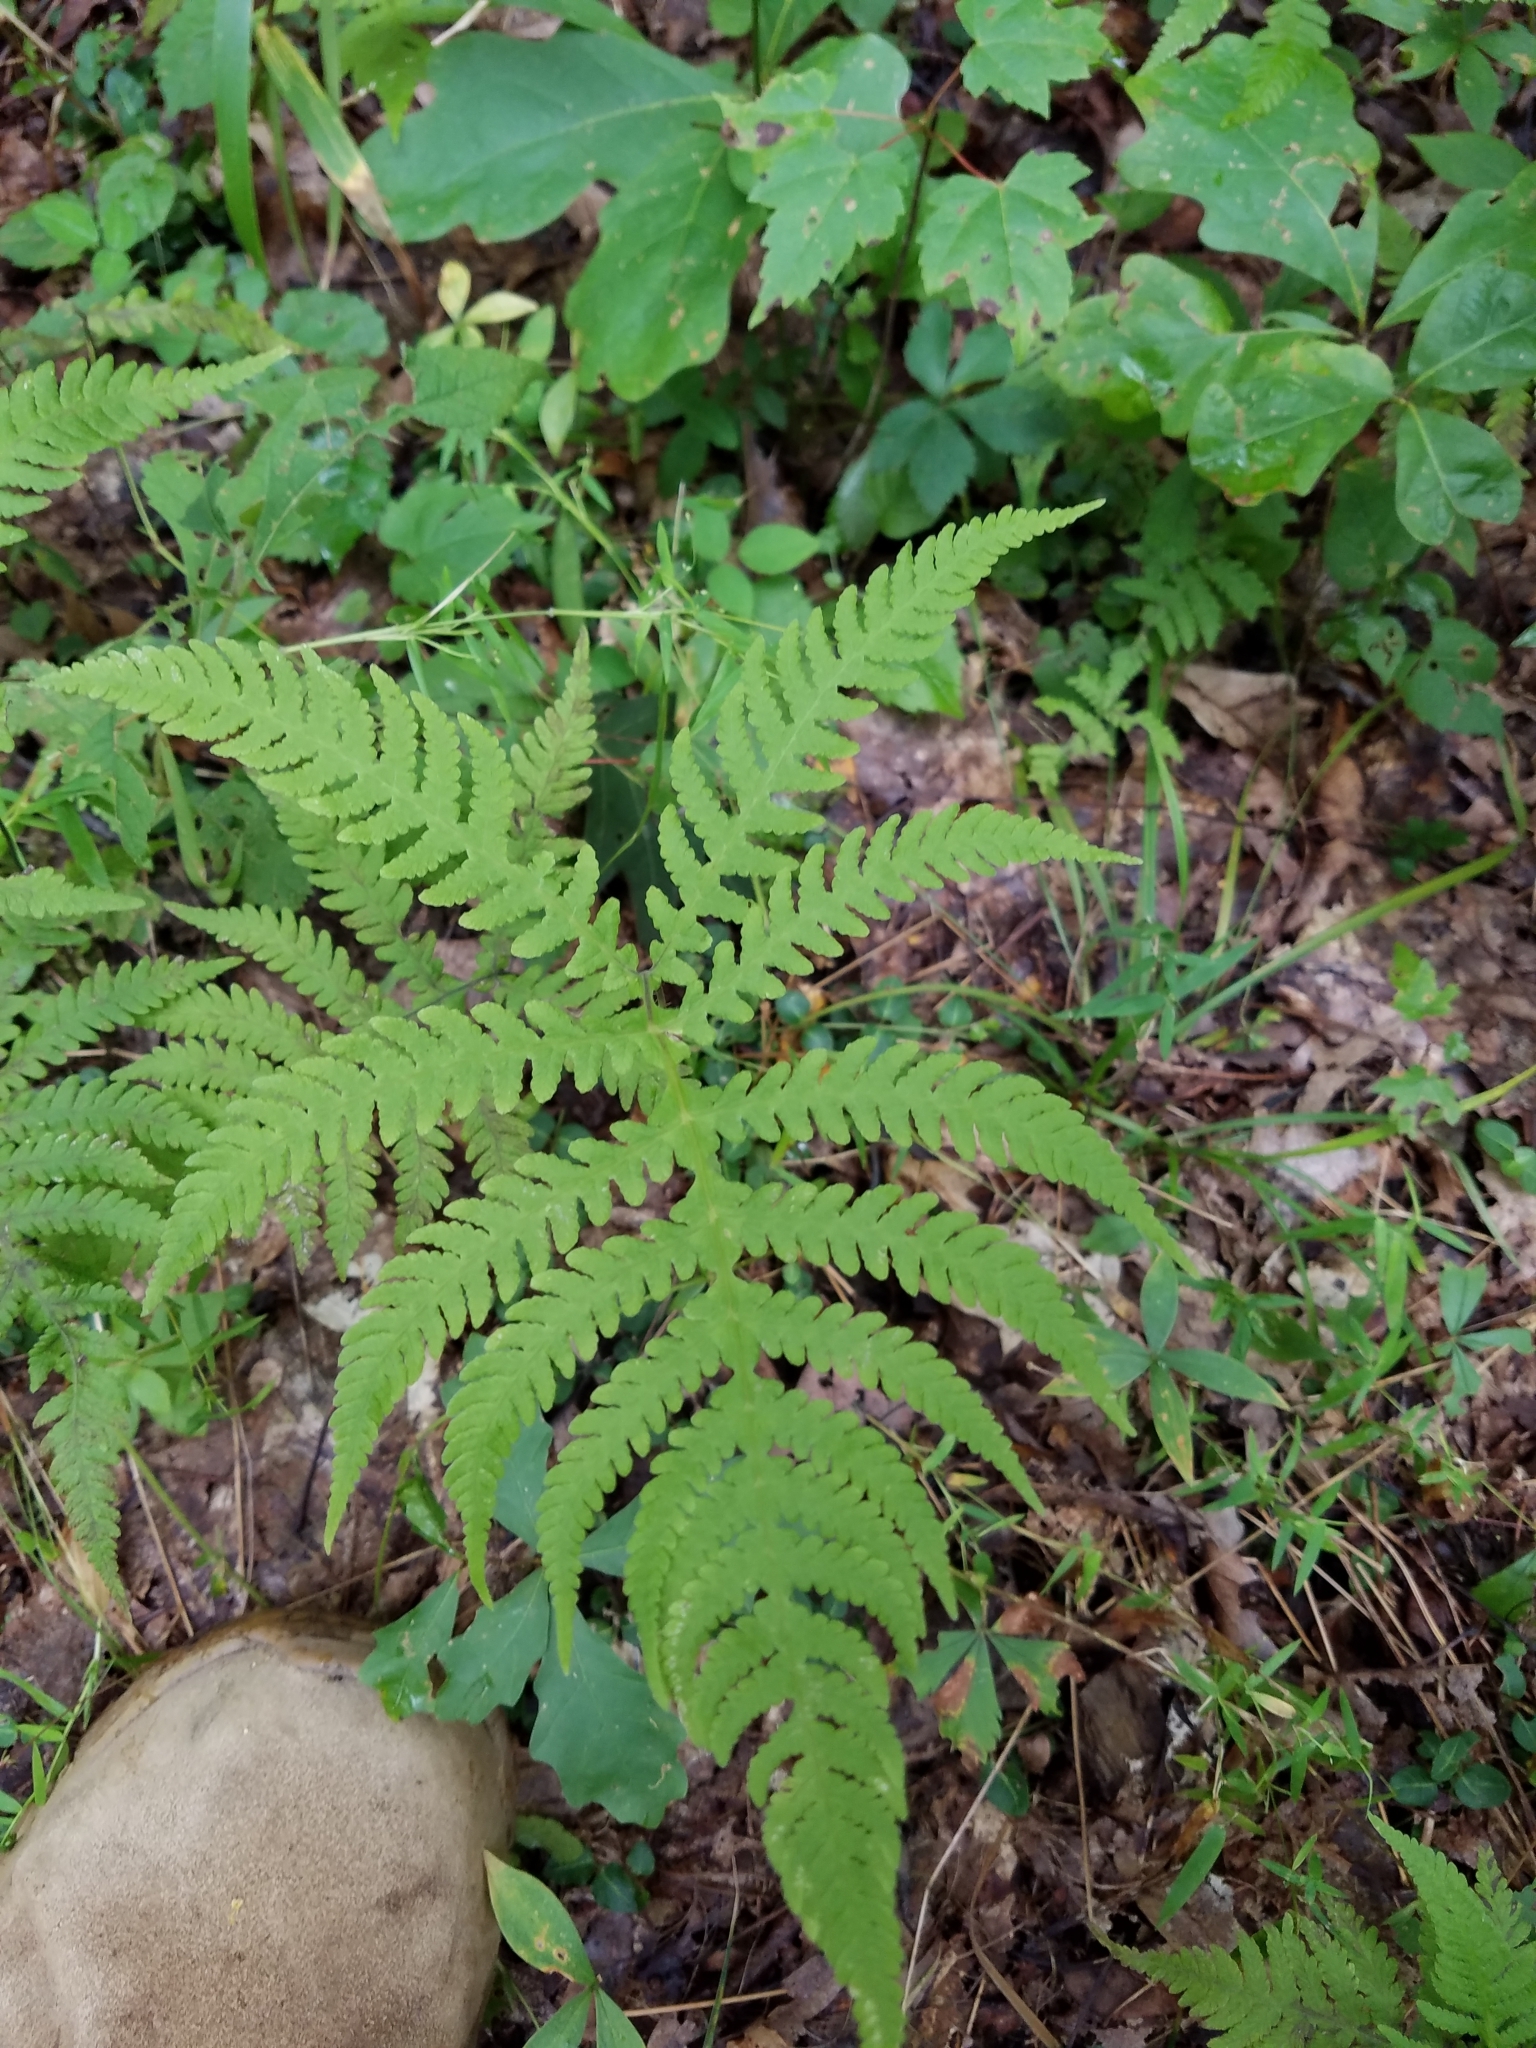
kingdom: Plantae
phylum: Tracheophyta
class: Polypodiopsida
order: Polypodiales
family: Thelypteridaceae
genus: Phegopteris
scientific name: Phegopteris hexagonoptera
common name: Broad beech fern
